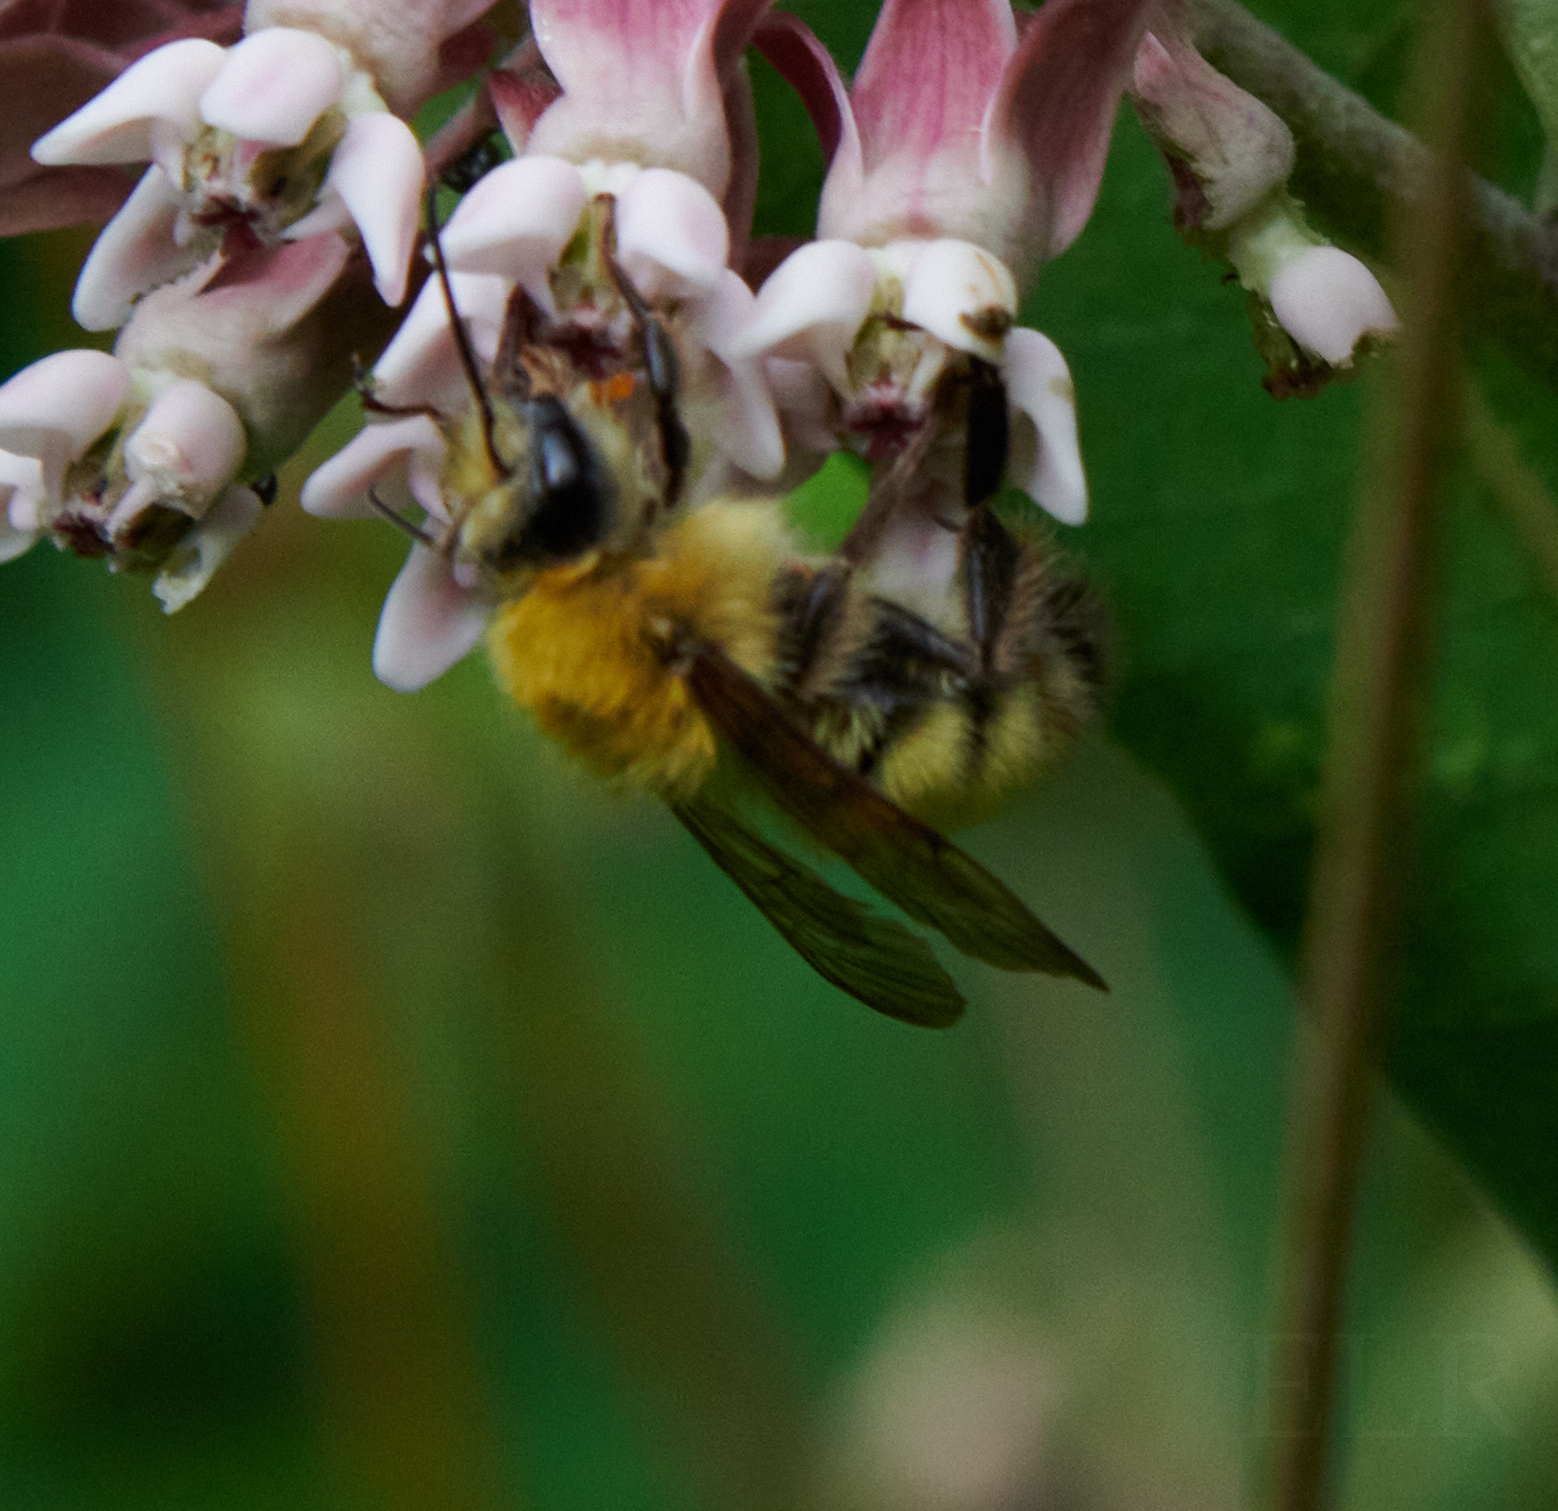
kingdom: Animalia
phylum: Arthropoda
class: Insecta
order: Hymenoptera
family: Apidae
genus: Bombus
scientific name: Bombus perplexus
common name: Confusing bumble bee
